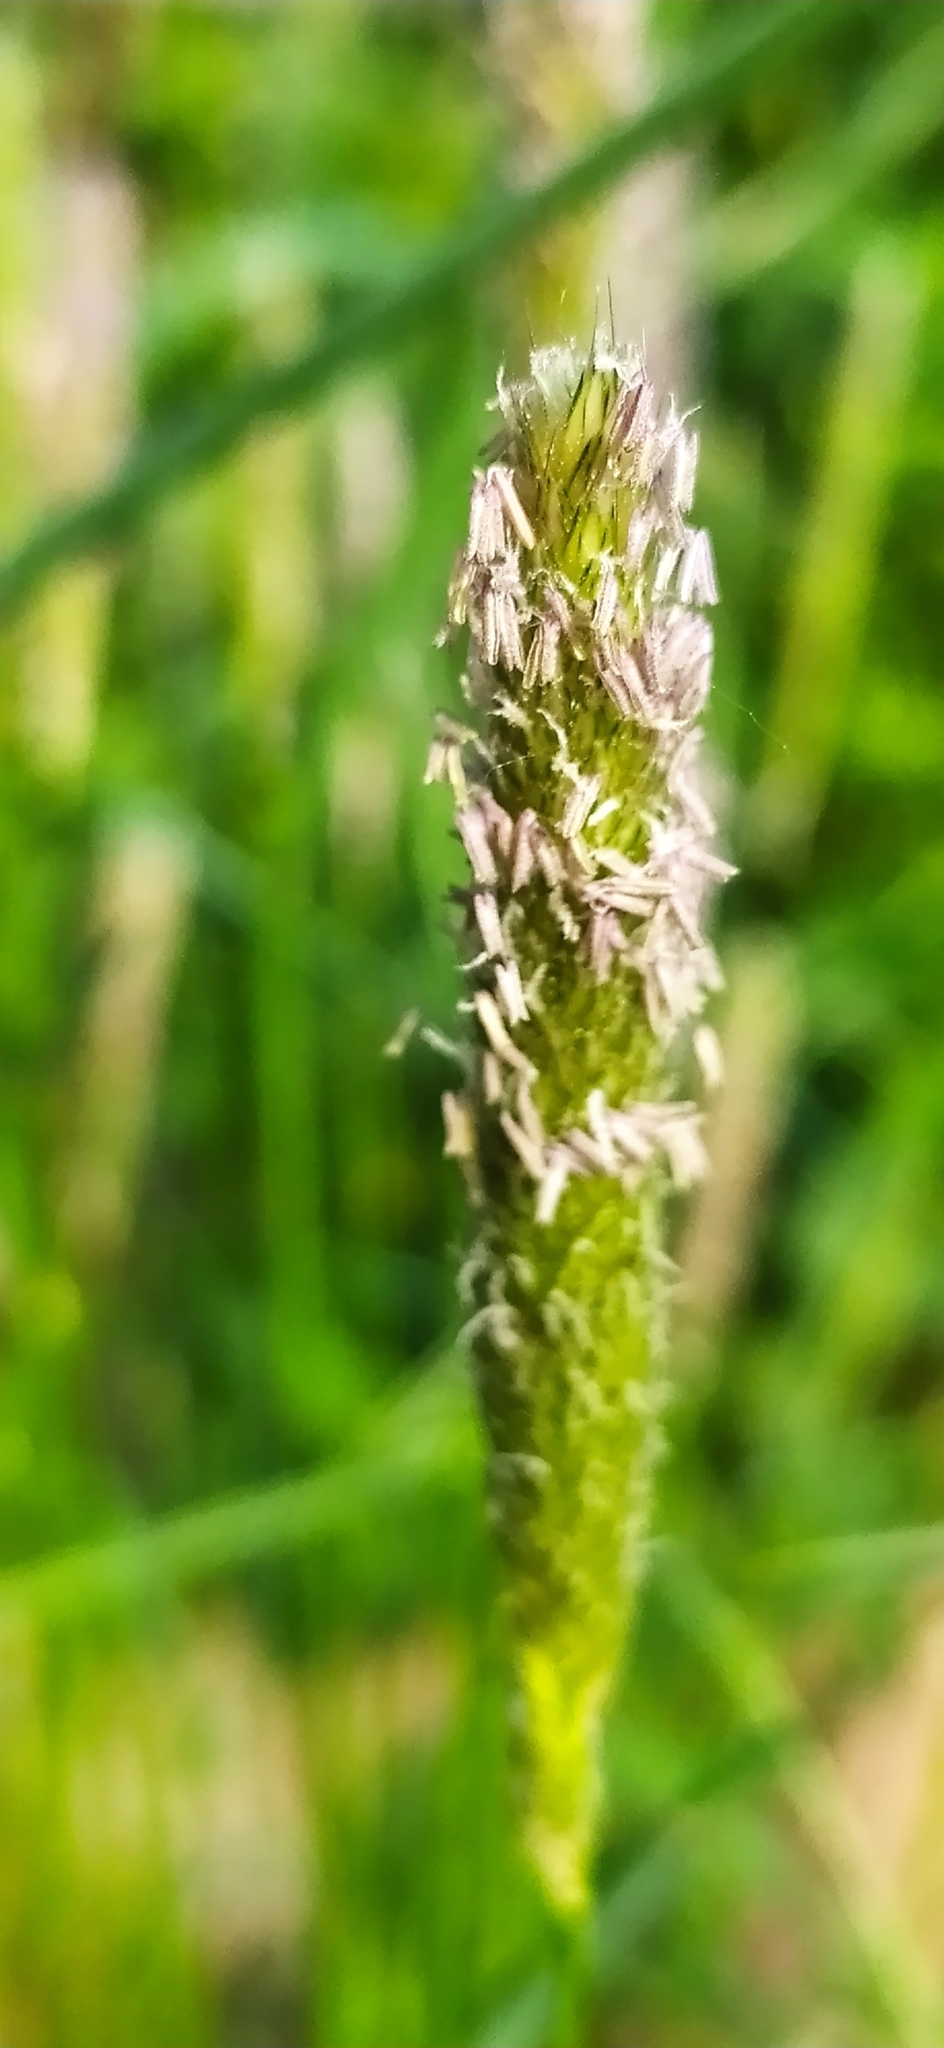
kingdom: Plantae
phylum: Tracheophyta
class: Liliopsida
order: Poales
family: Poaceae
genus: Phleum
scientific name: Phleum pratense
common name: Timothy grass
